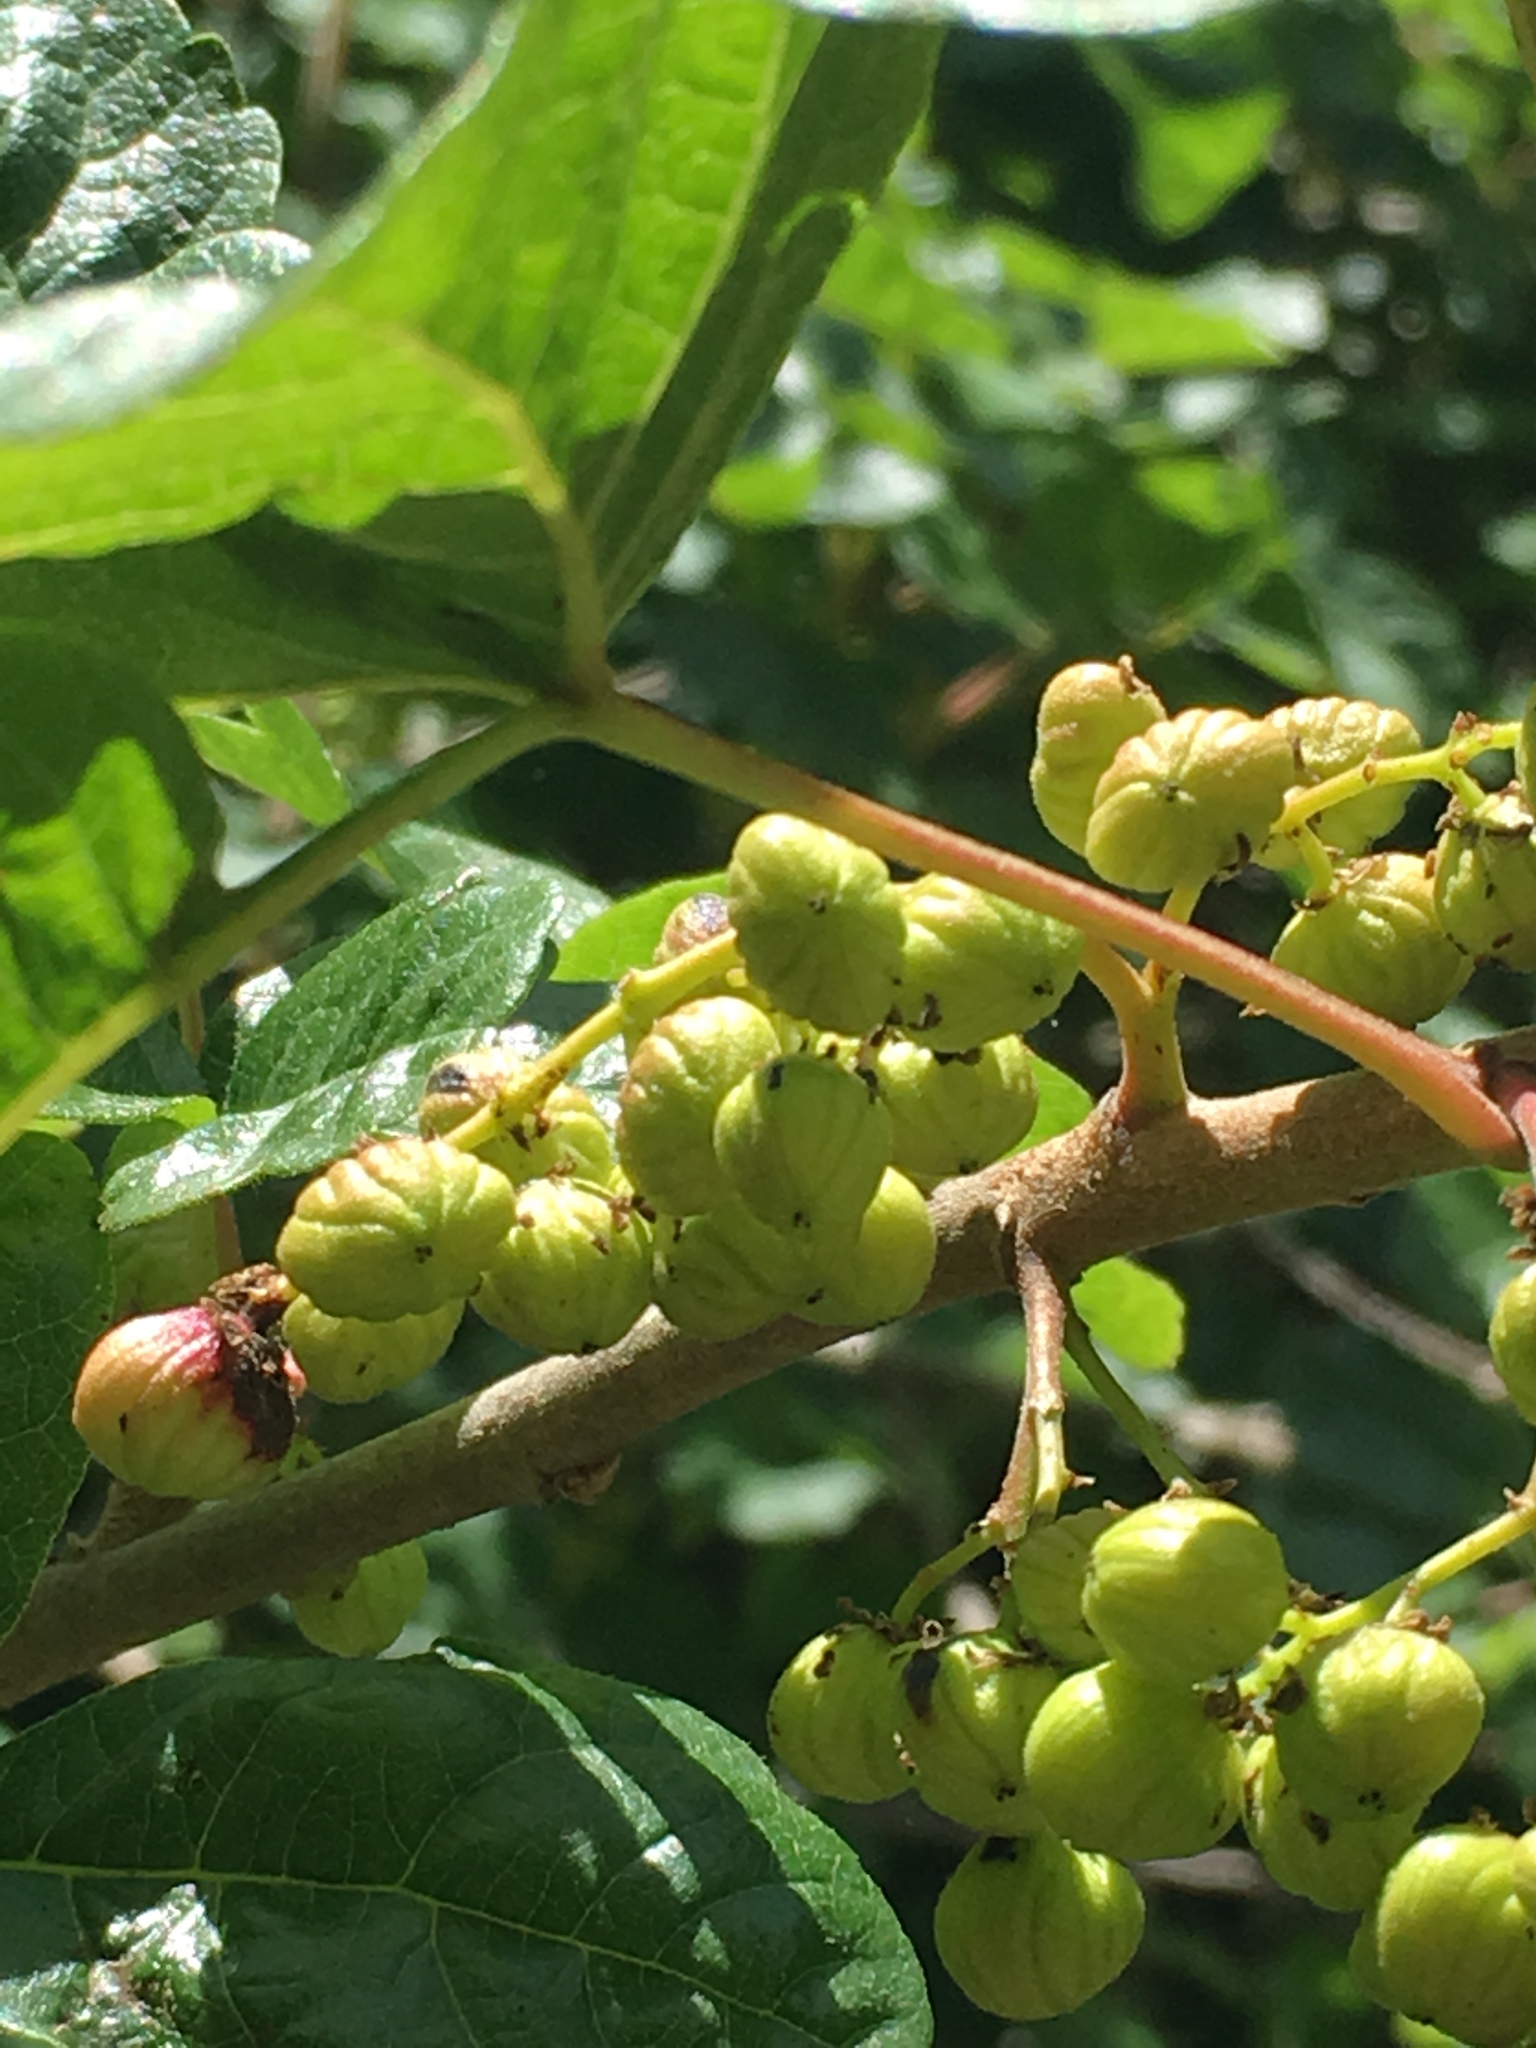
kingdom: Plantae
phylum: Tracheophyta
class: Magnoliopsida
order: Sapindales
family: Anacardiaceae
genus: Toxicodendron
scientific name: Toxicodendron diversilobum
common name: Pacific poison-oak
